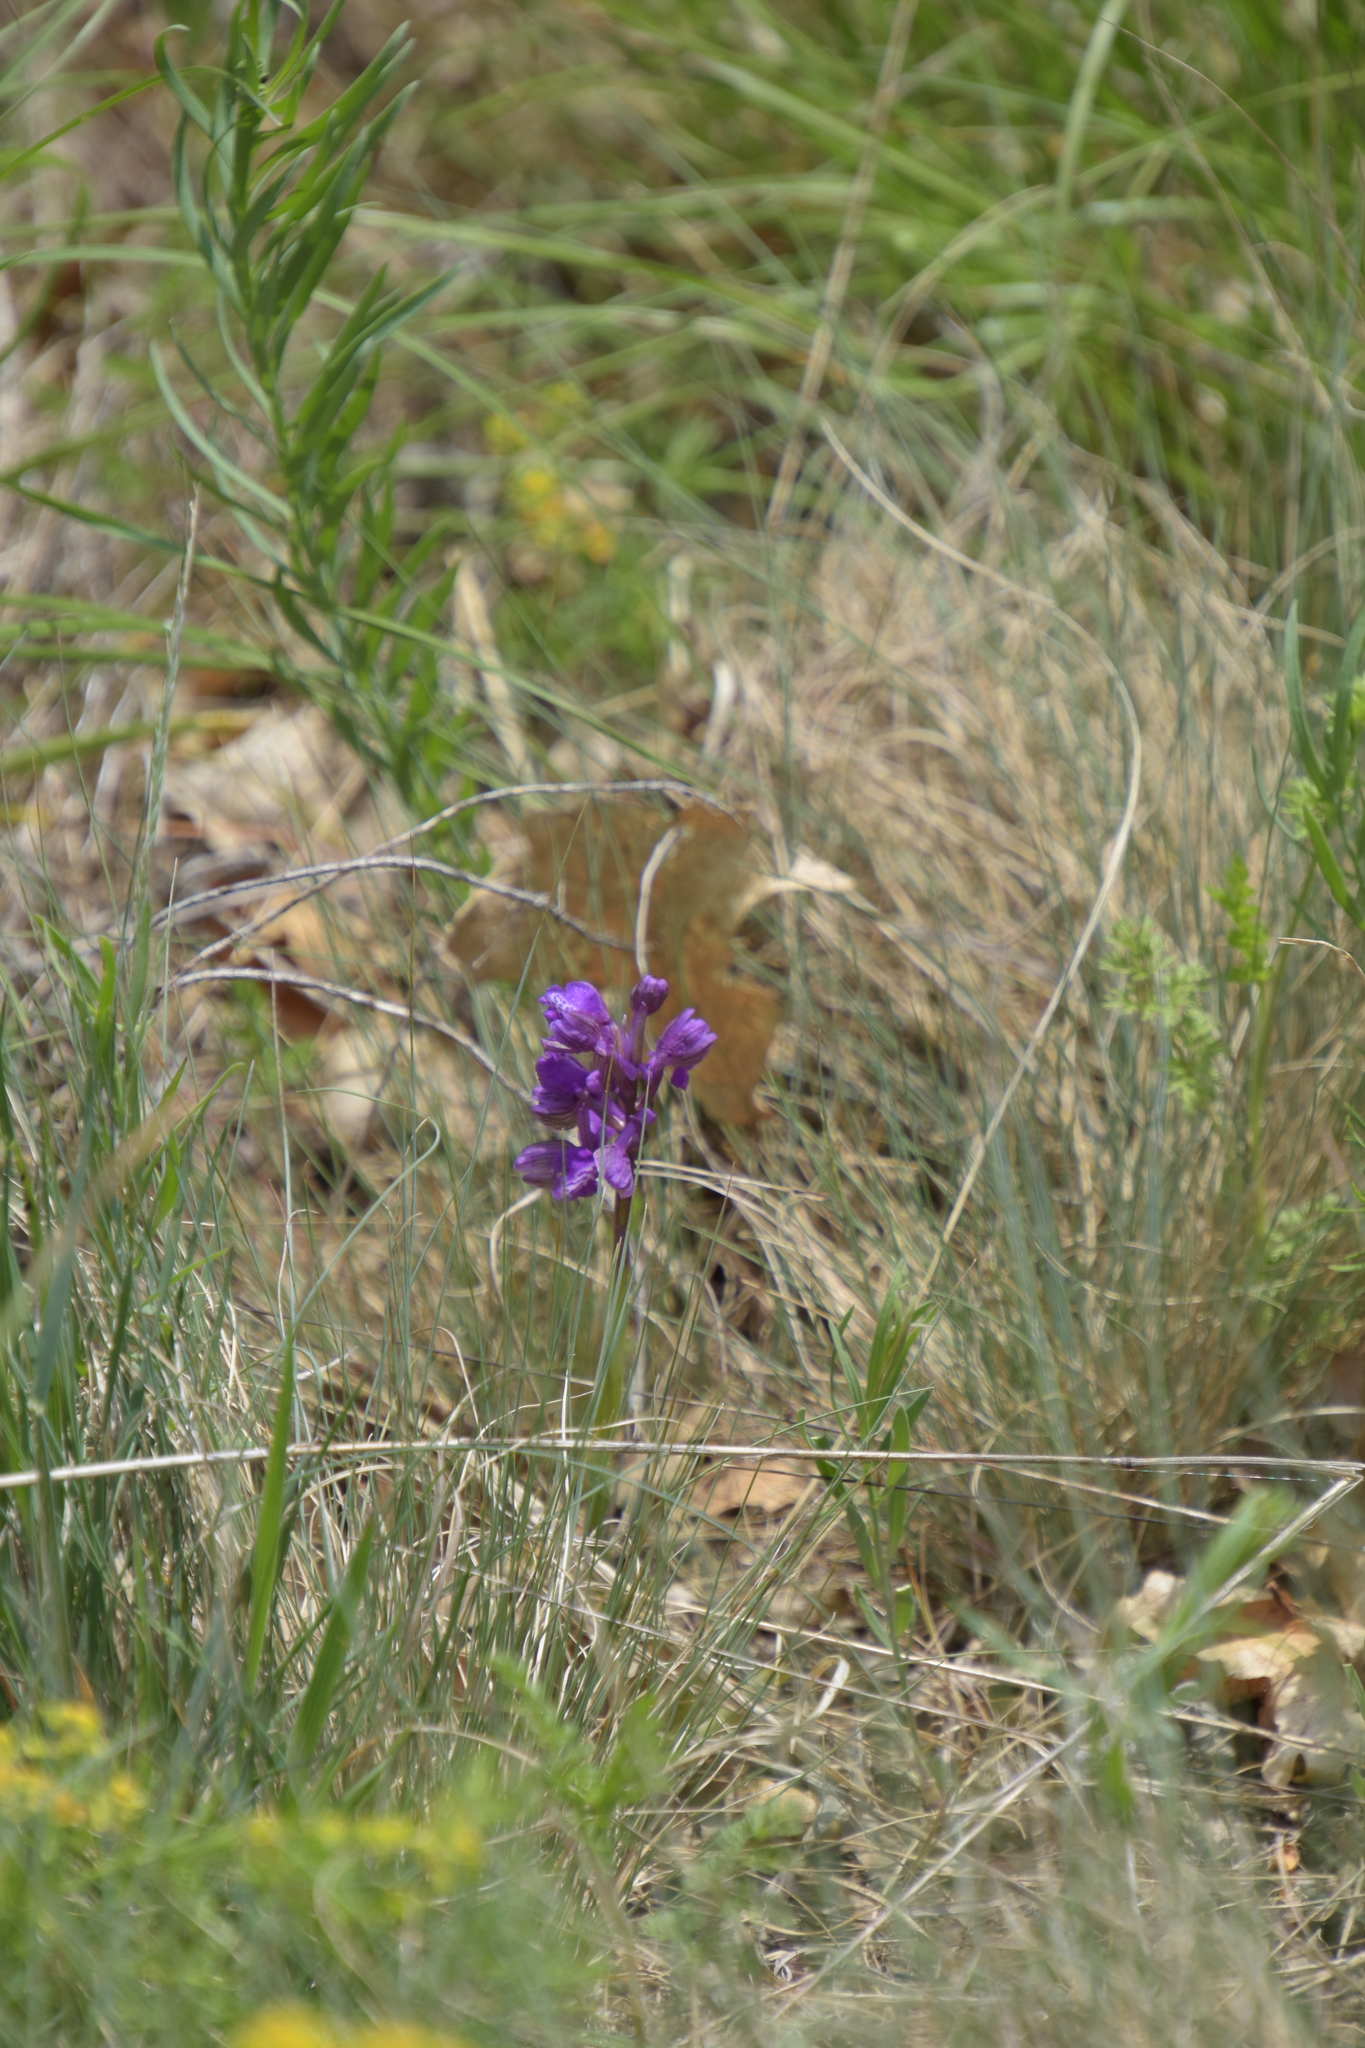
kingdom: Plantae
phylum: Tracheophyta
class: Liliopsida
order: Asparagales
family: Orchidaceae
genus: Anacamptis
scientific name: Anacamptis morio
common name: Green-winged orchid
